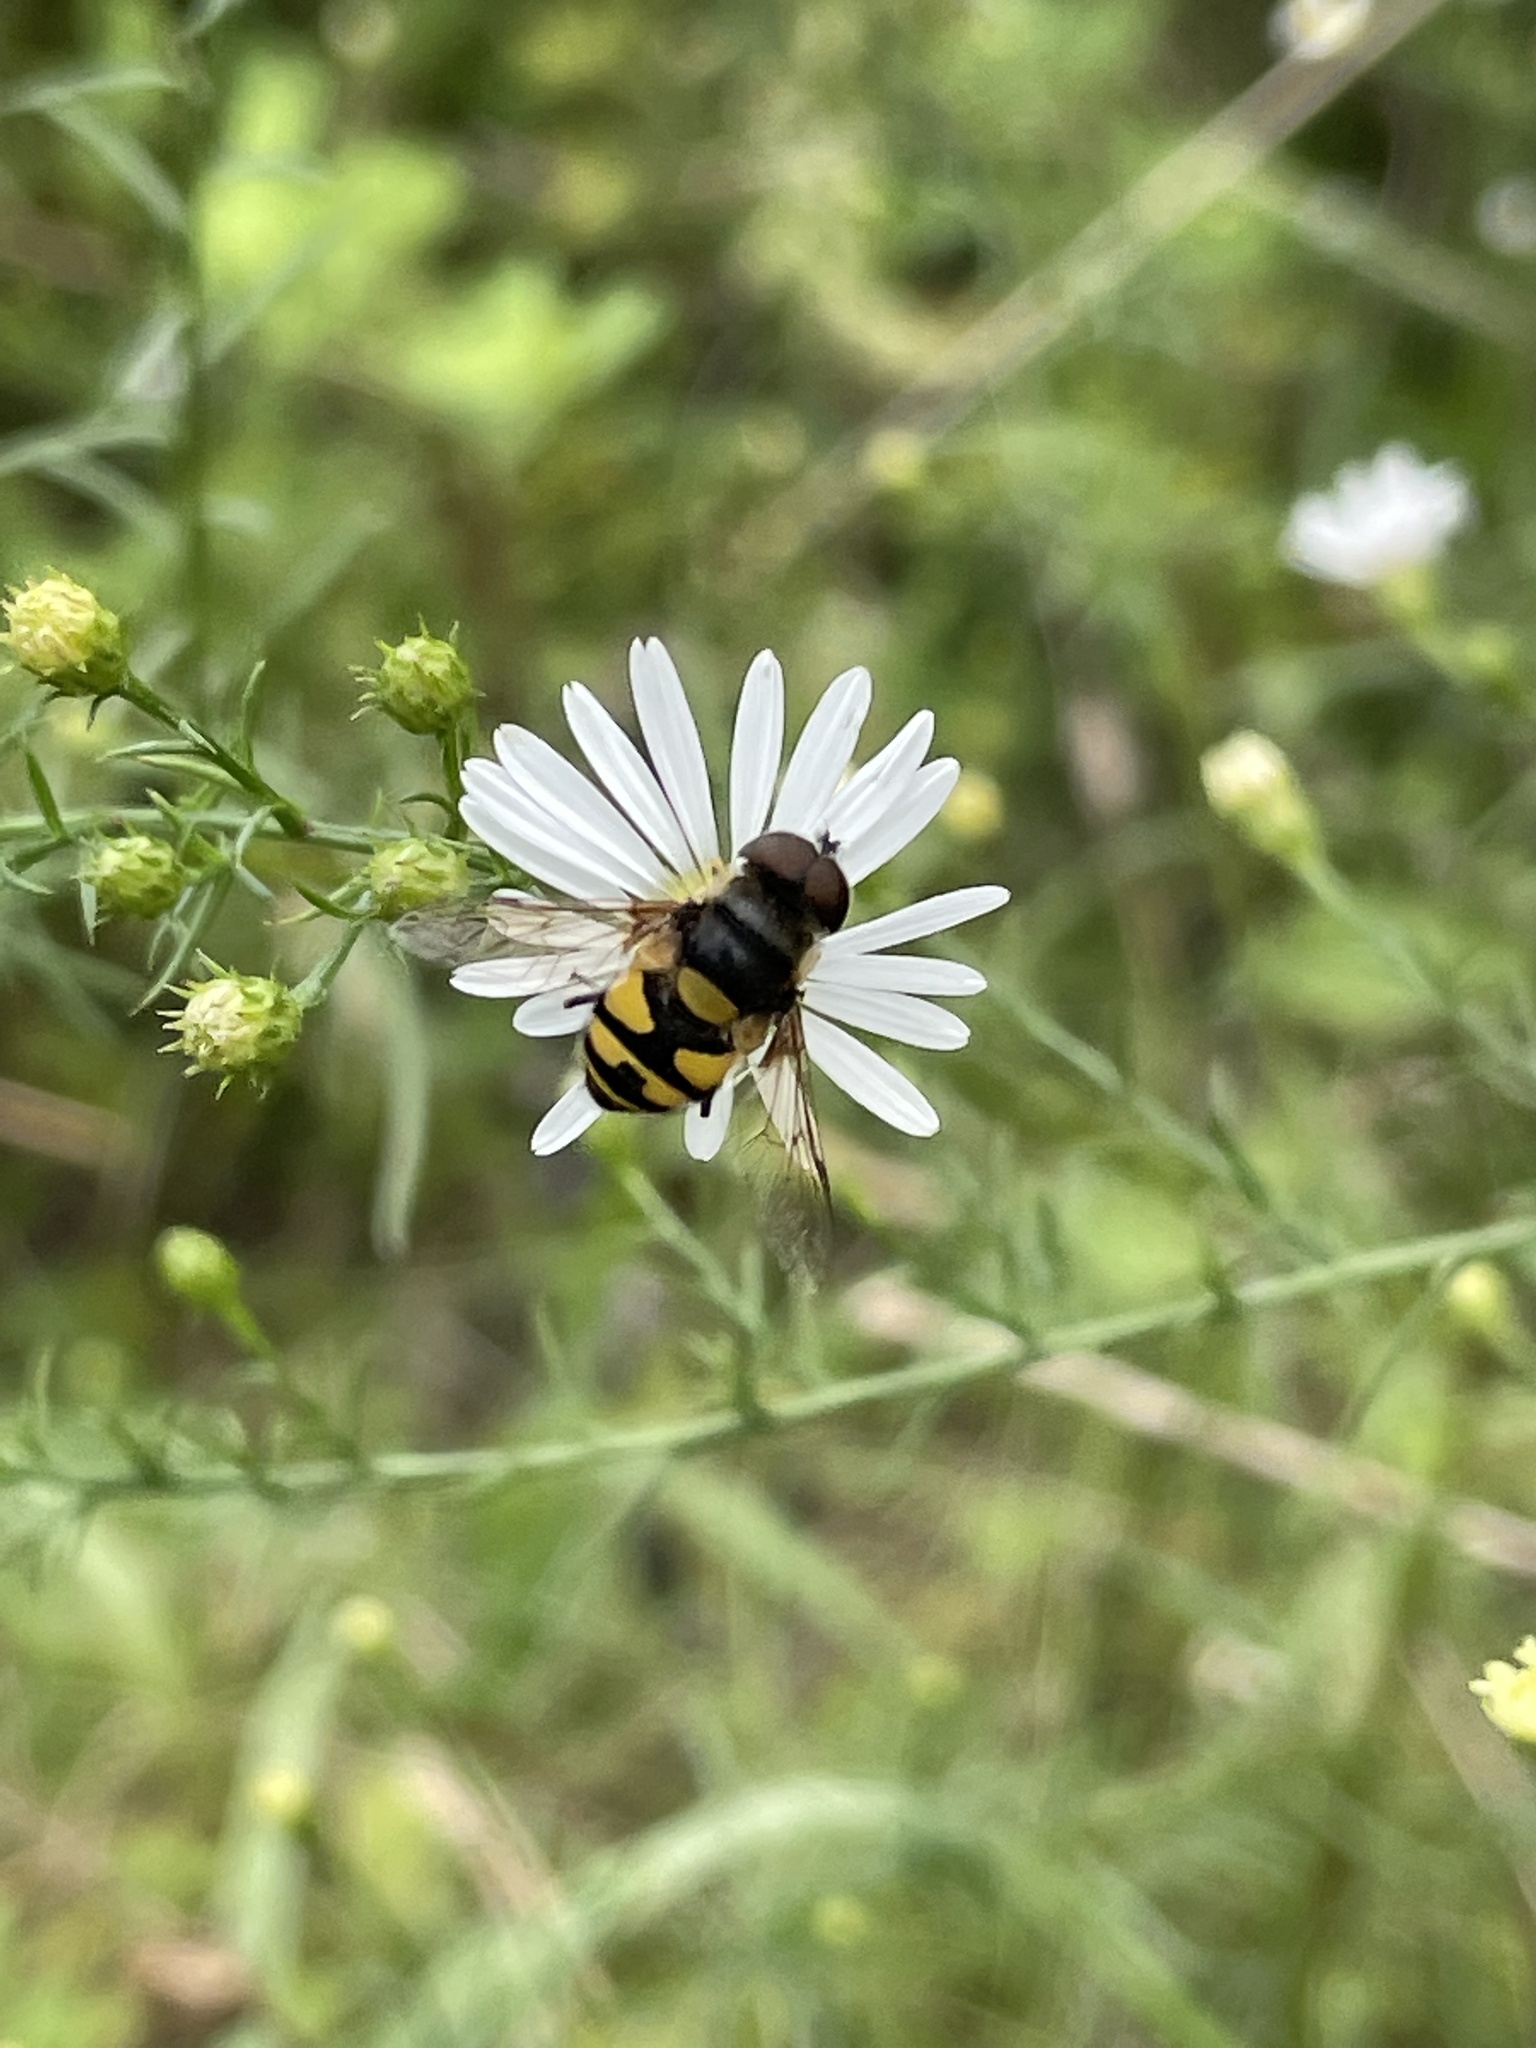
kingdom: Animalia
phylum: Arthropoda
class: Insecta
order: Diptera
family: Syrphidae
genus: Eristalis
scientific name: Eristalis transversa
